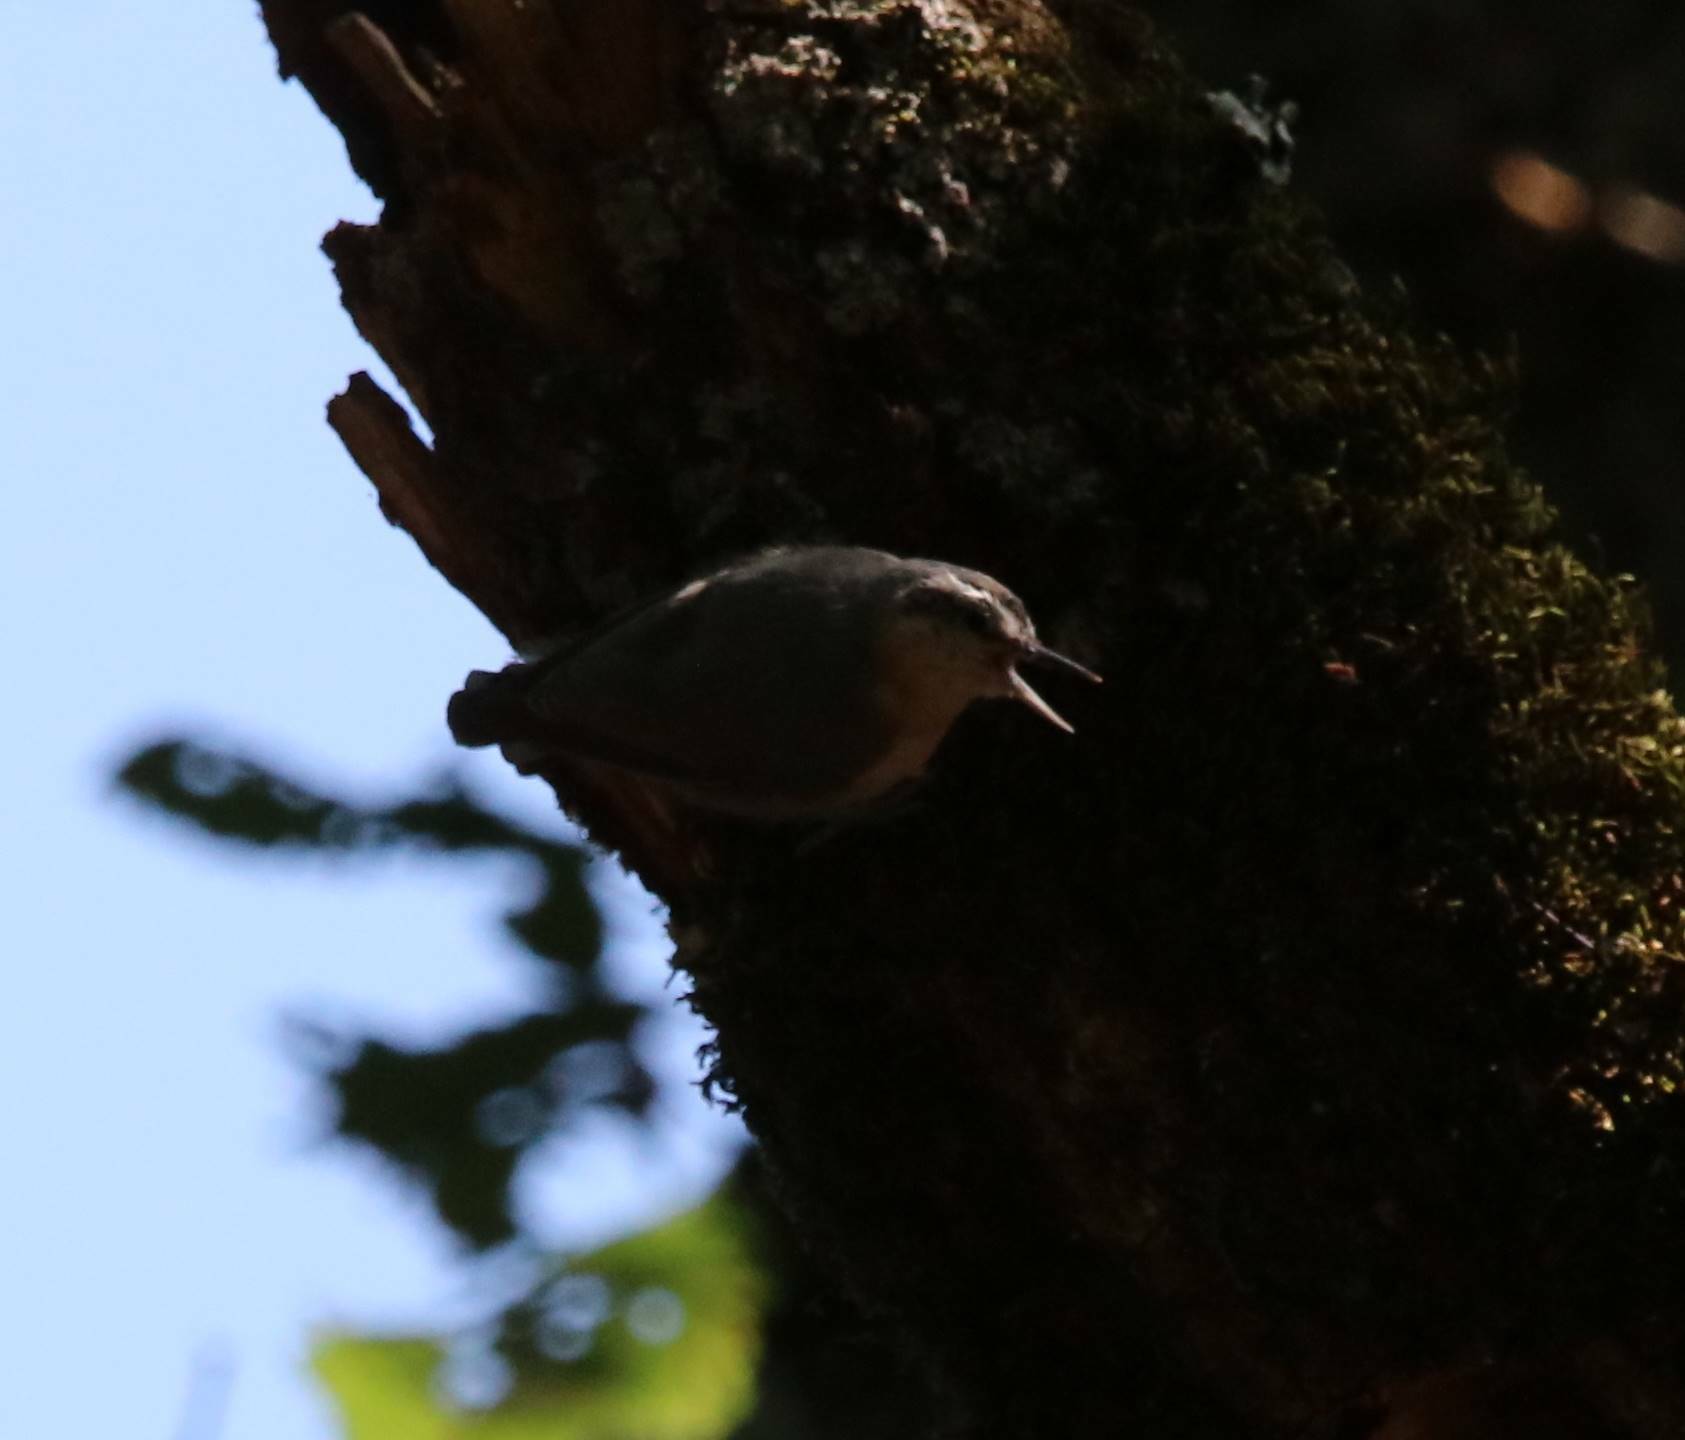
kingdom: Animalia
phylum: Chordata
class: Aves
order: Passeriformes
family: Sittidae
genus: Sitta
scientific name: Sitta ledanti
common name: Algerian nuthatch
